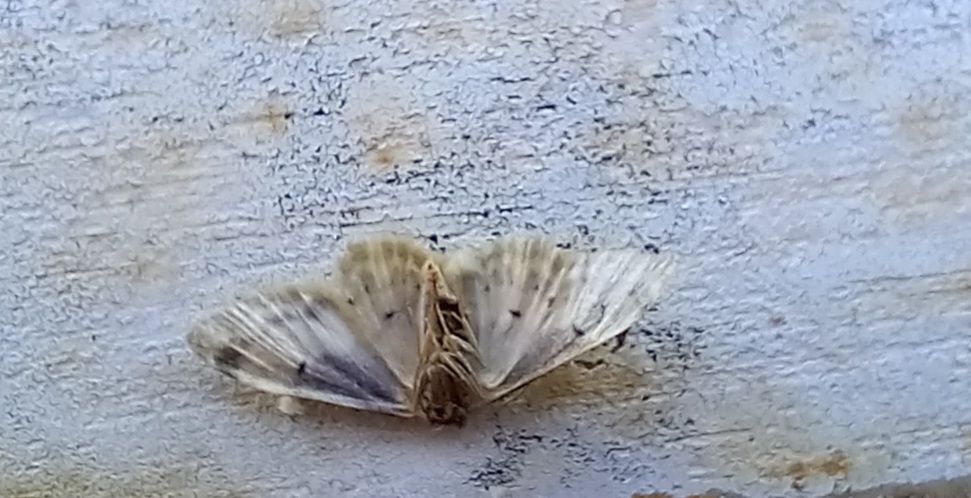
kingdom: Animalia
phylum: Arthropoda
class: Insecta
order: Lepidoptera
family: Geometridae
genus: Idaea
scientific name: Idaea filicata
